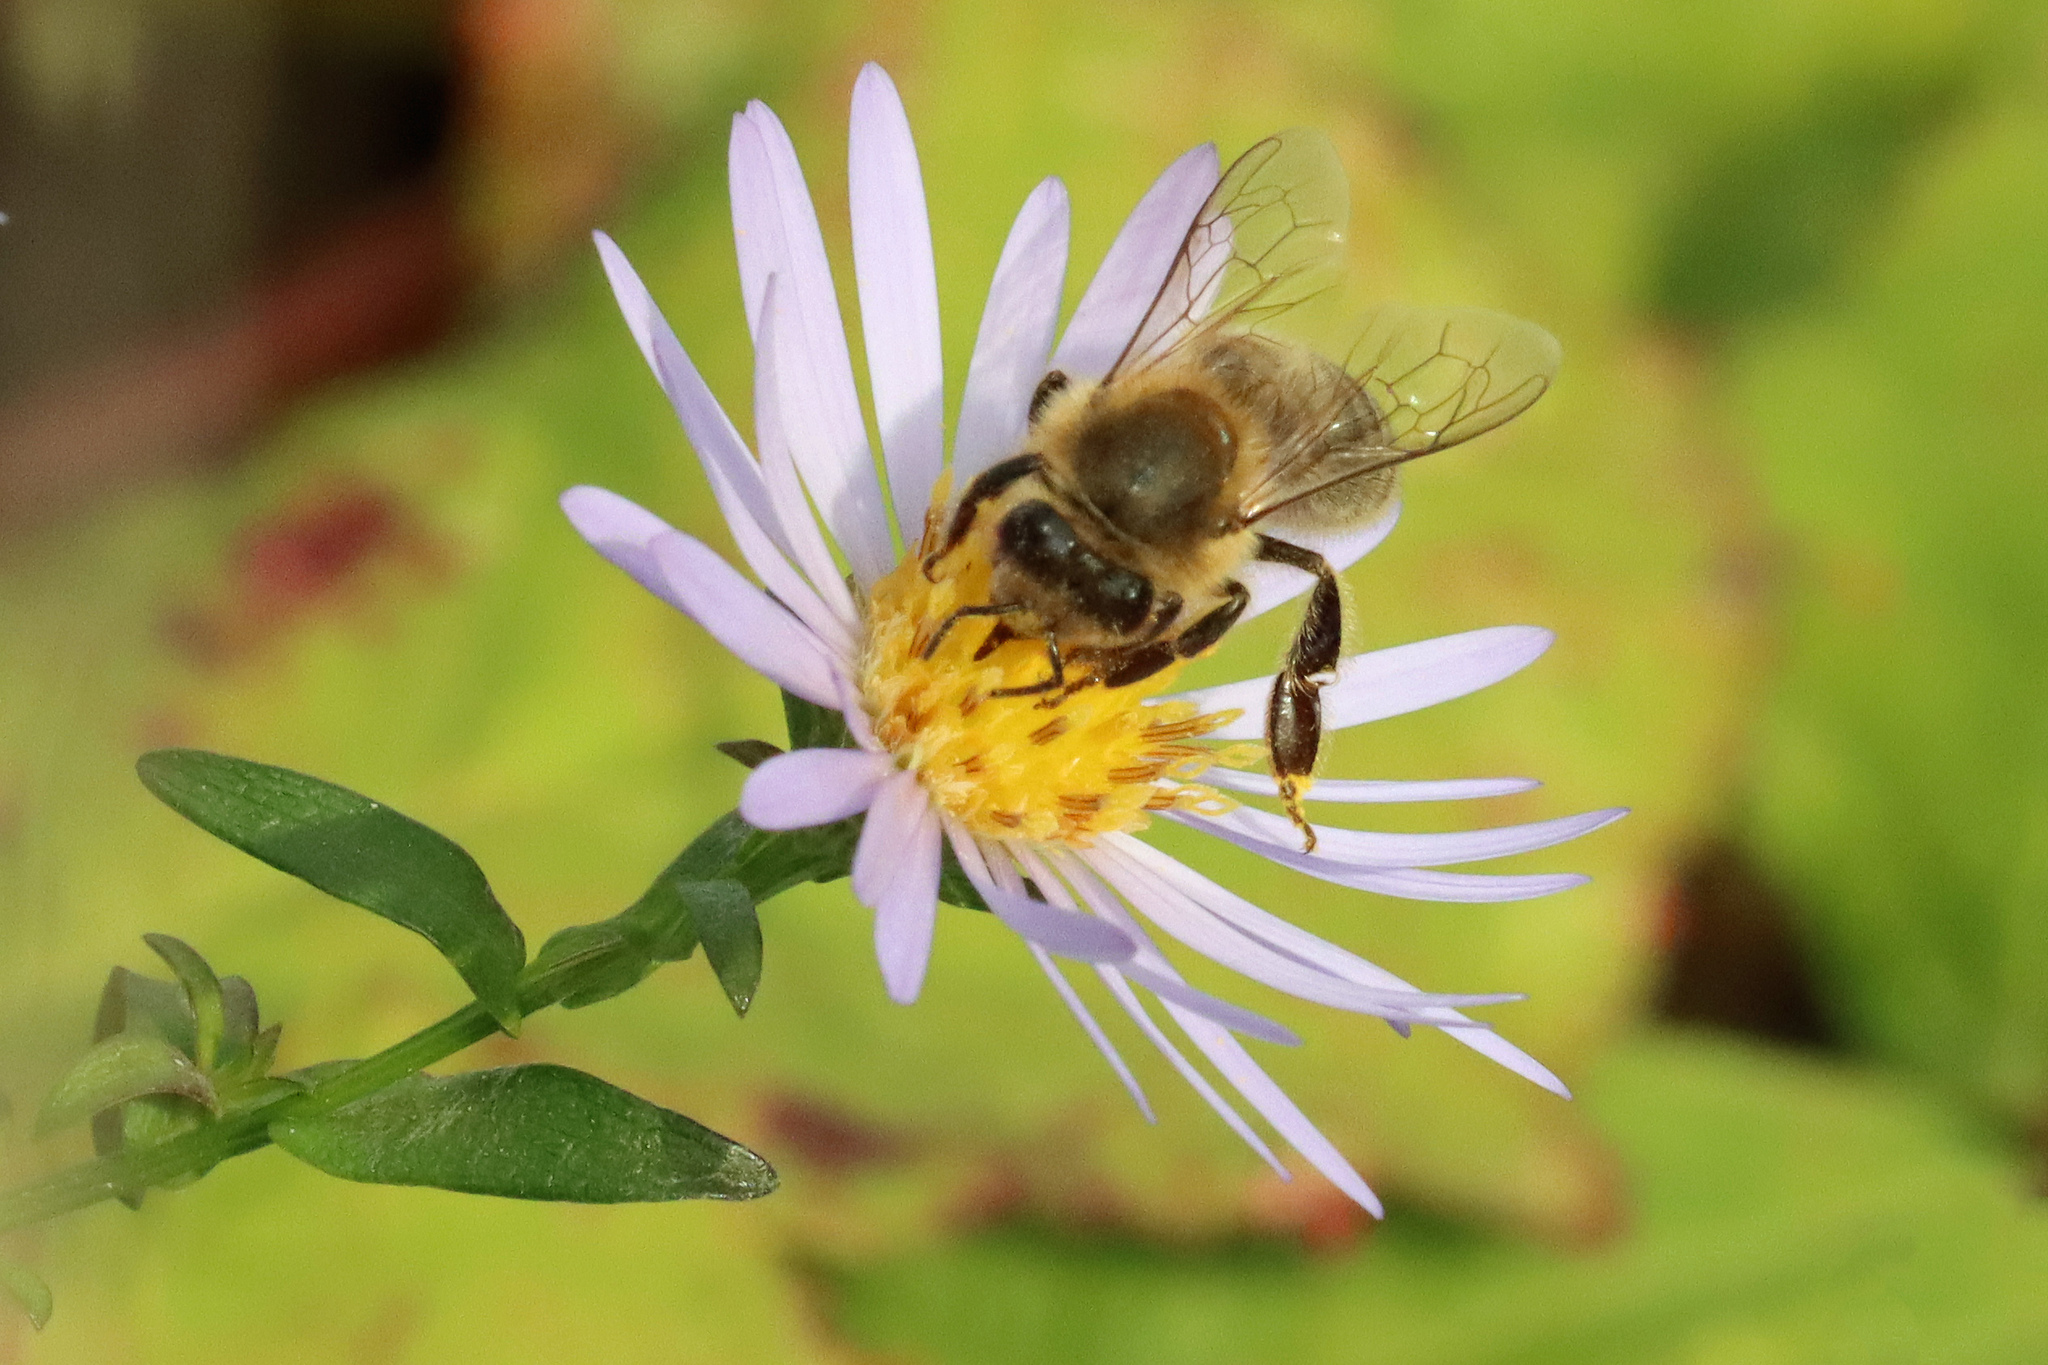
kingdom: Animalia
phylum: Arthropoda
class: Insecta
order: Hymenoptera
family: Apidae
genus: Apis
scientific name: Apis mellifera
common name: Honey bee
